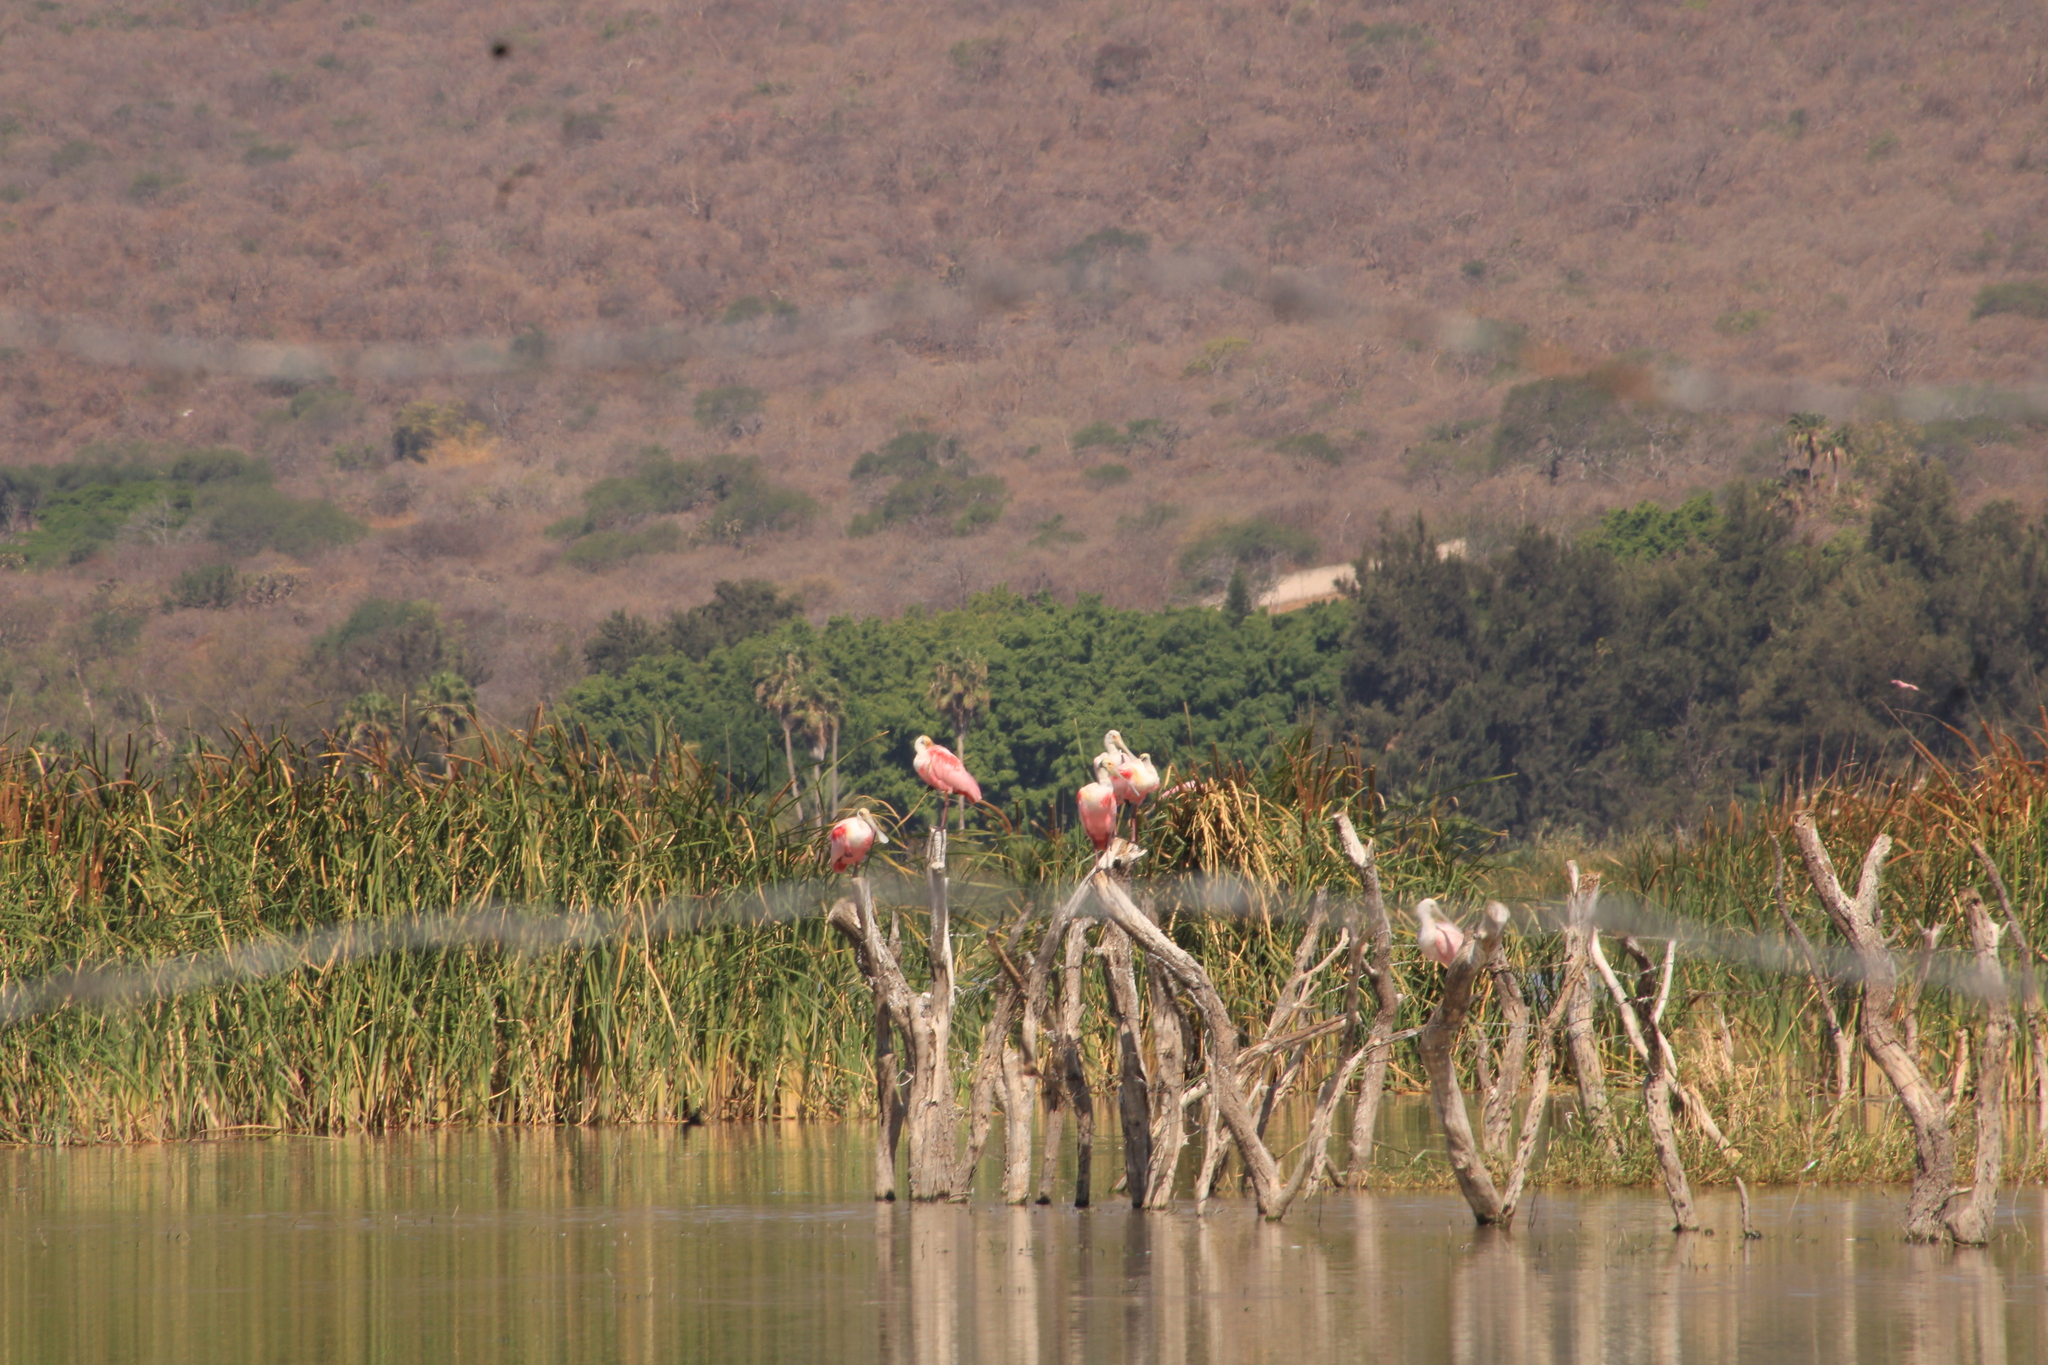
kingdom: Animalia
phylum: Chordata
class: Aves
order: Pelecaniformes
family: Threskiornithidae
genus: Platalea
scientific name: Platalea ajaja
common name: Roseate spoonbill
